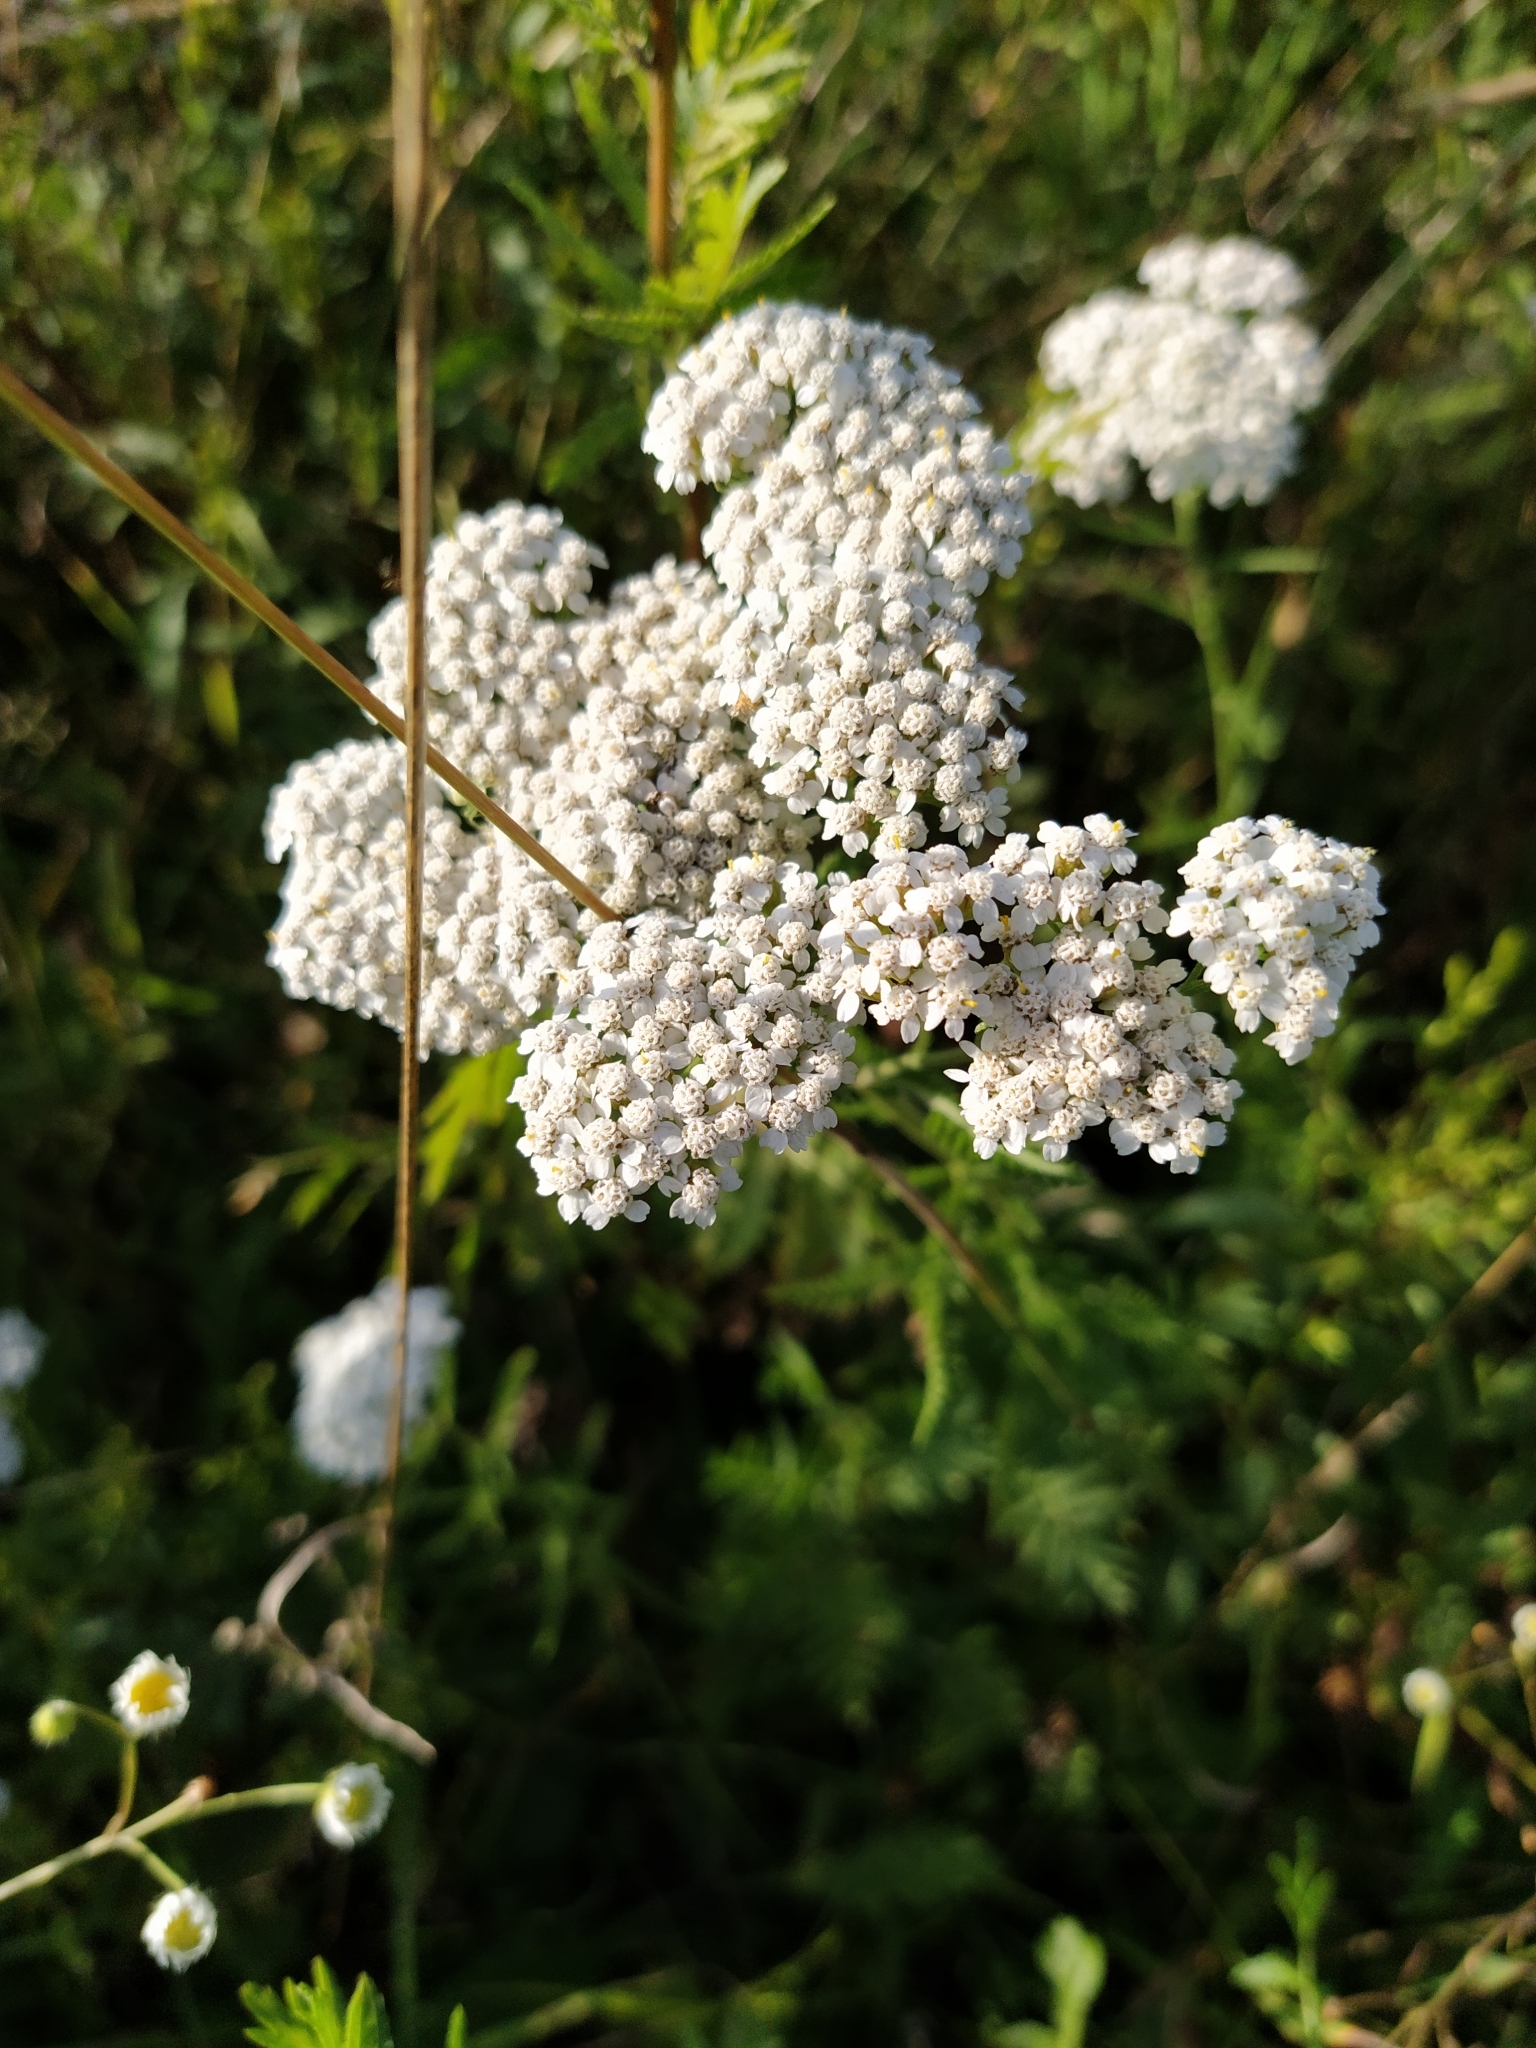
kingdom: Plantae
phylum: Tracheophyta
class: Magnoliopsida
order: Asterales
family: Asteraceae
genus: Achillea
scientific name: Achillea millefolium
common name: Yarrow
